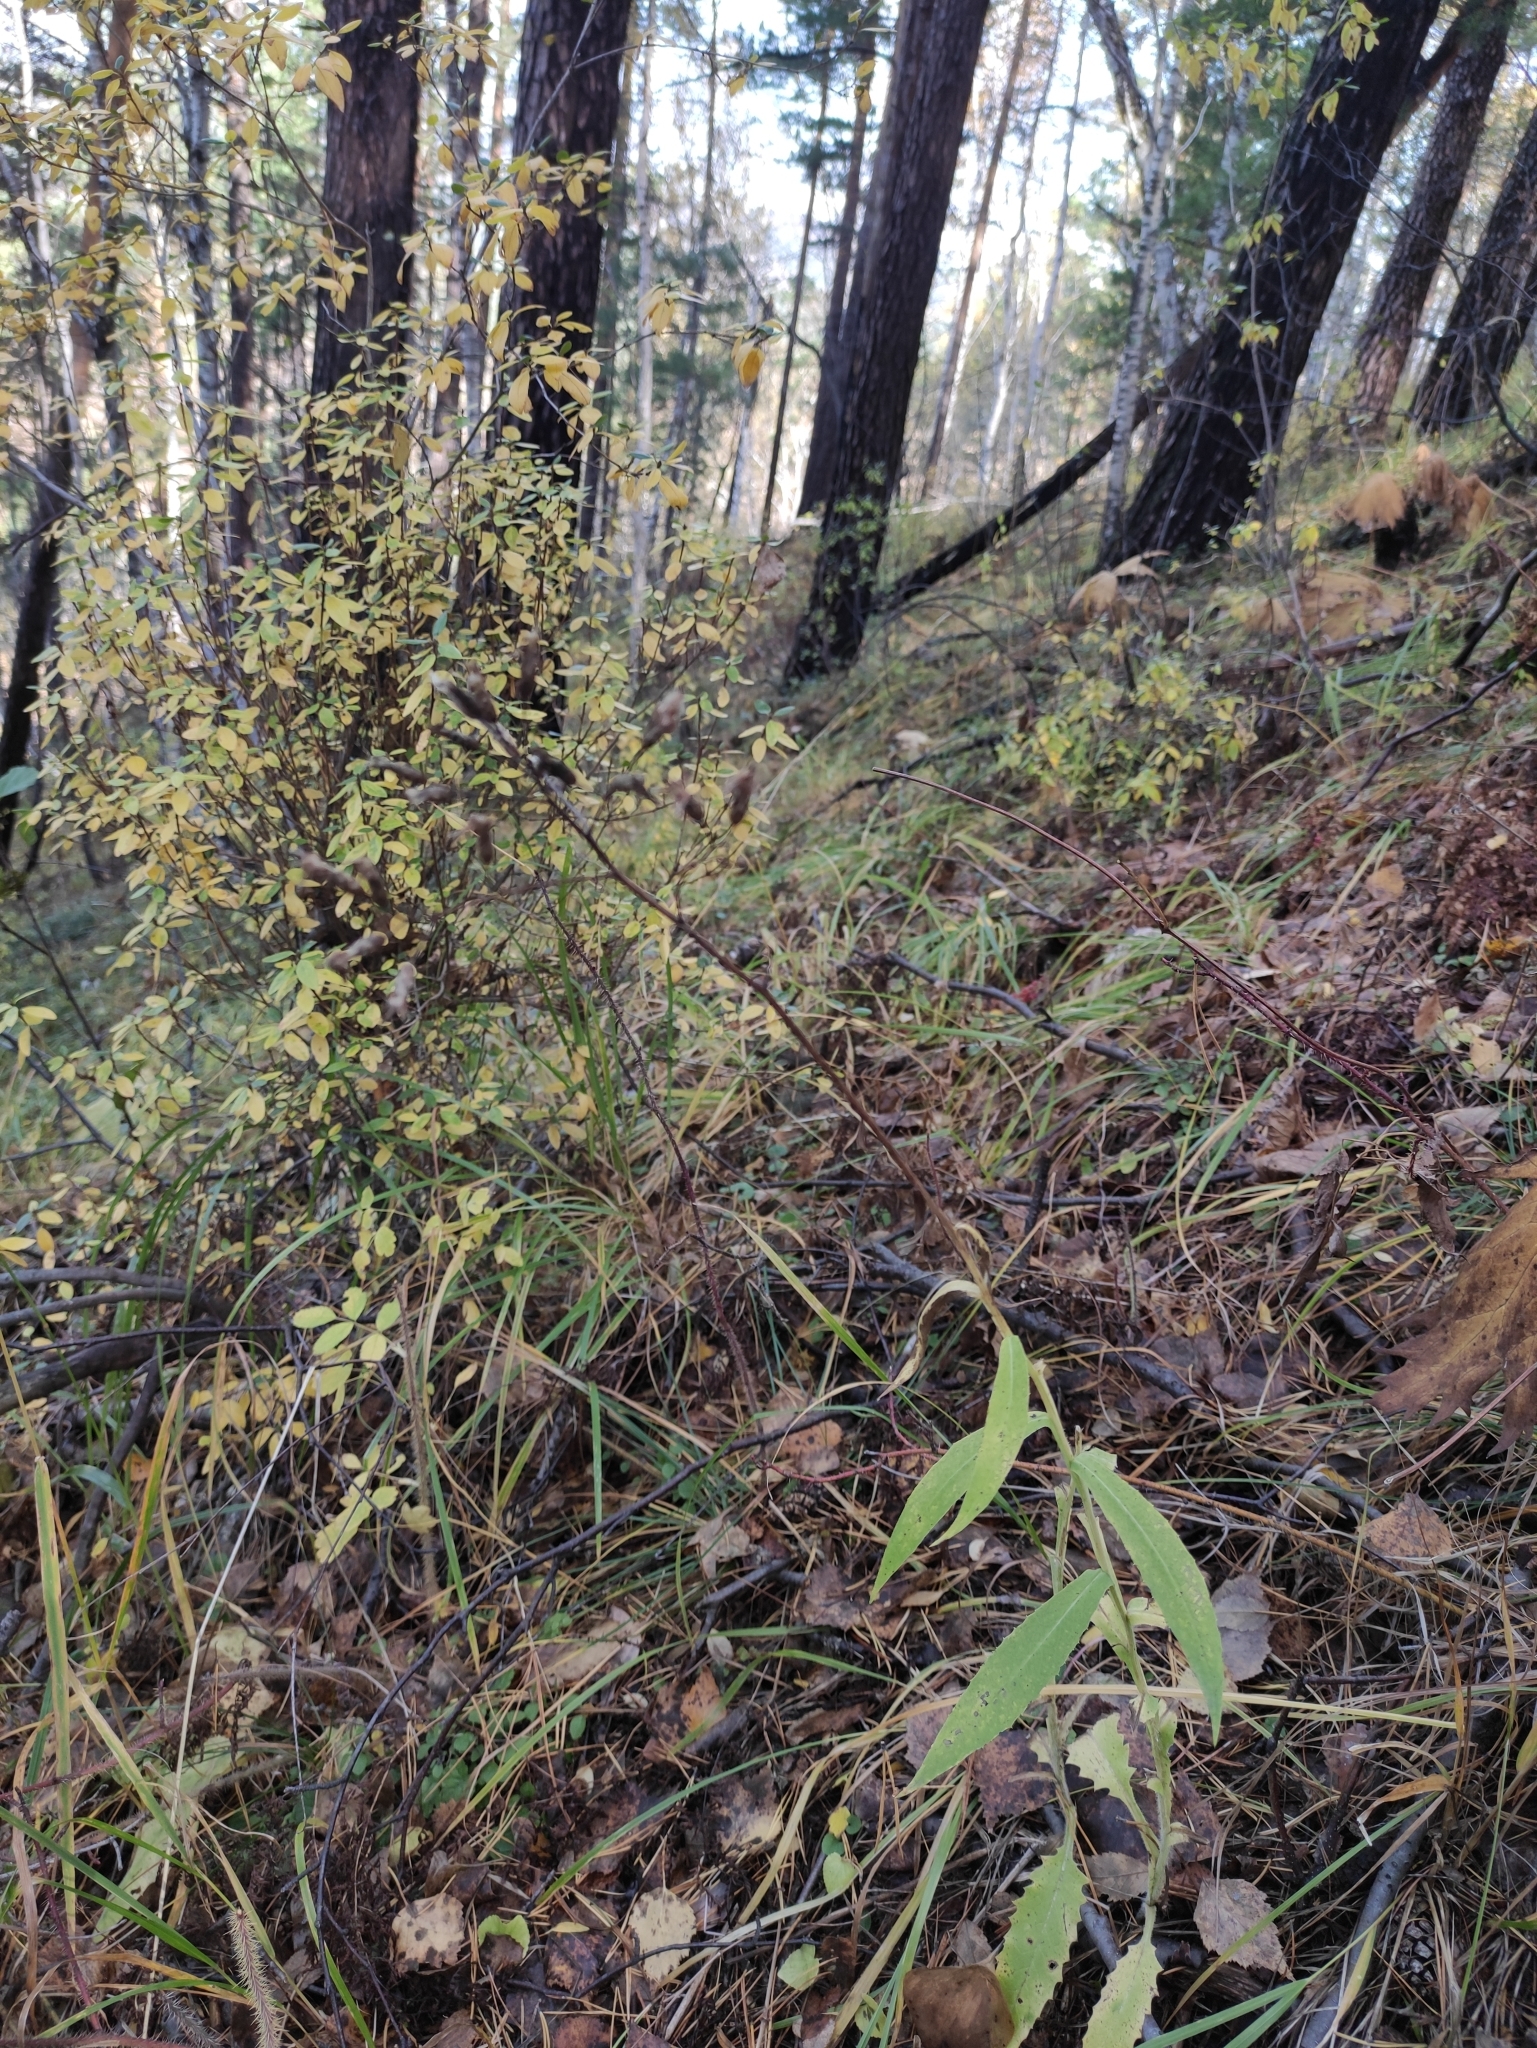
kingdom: Plantae
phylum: Tracheophyta
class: Magnoliopsida
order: Asterales
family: Asteraceae
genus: Saussurea
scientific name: Saussurea parviflora
